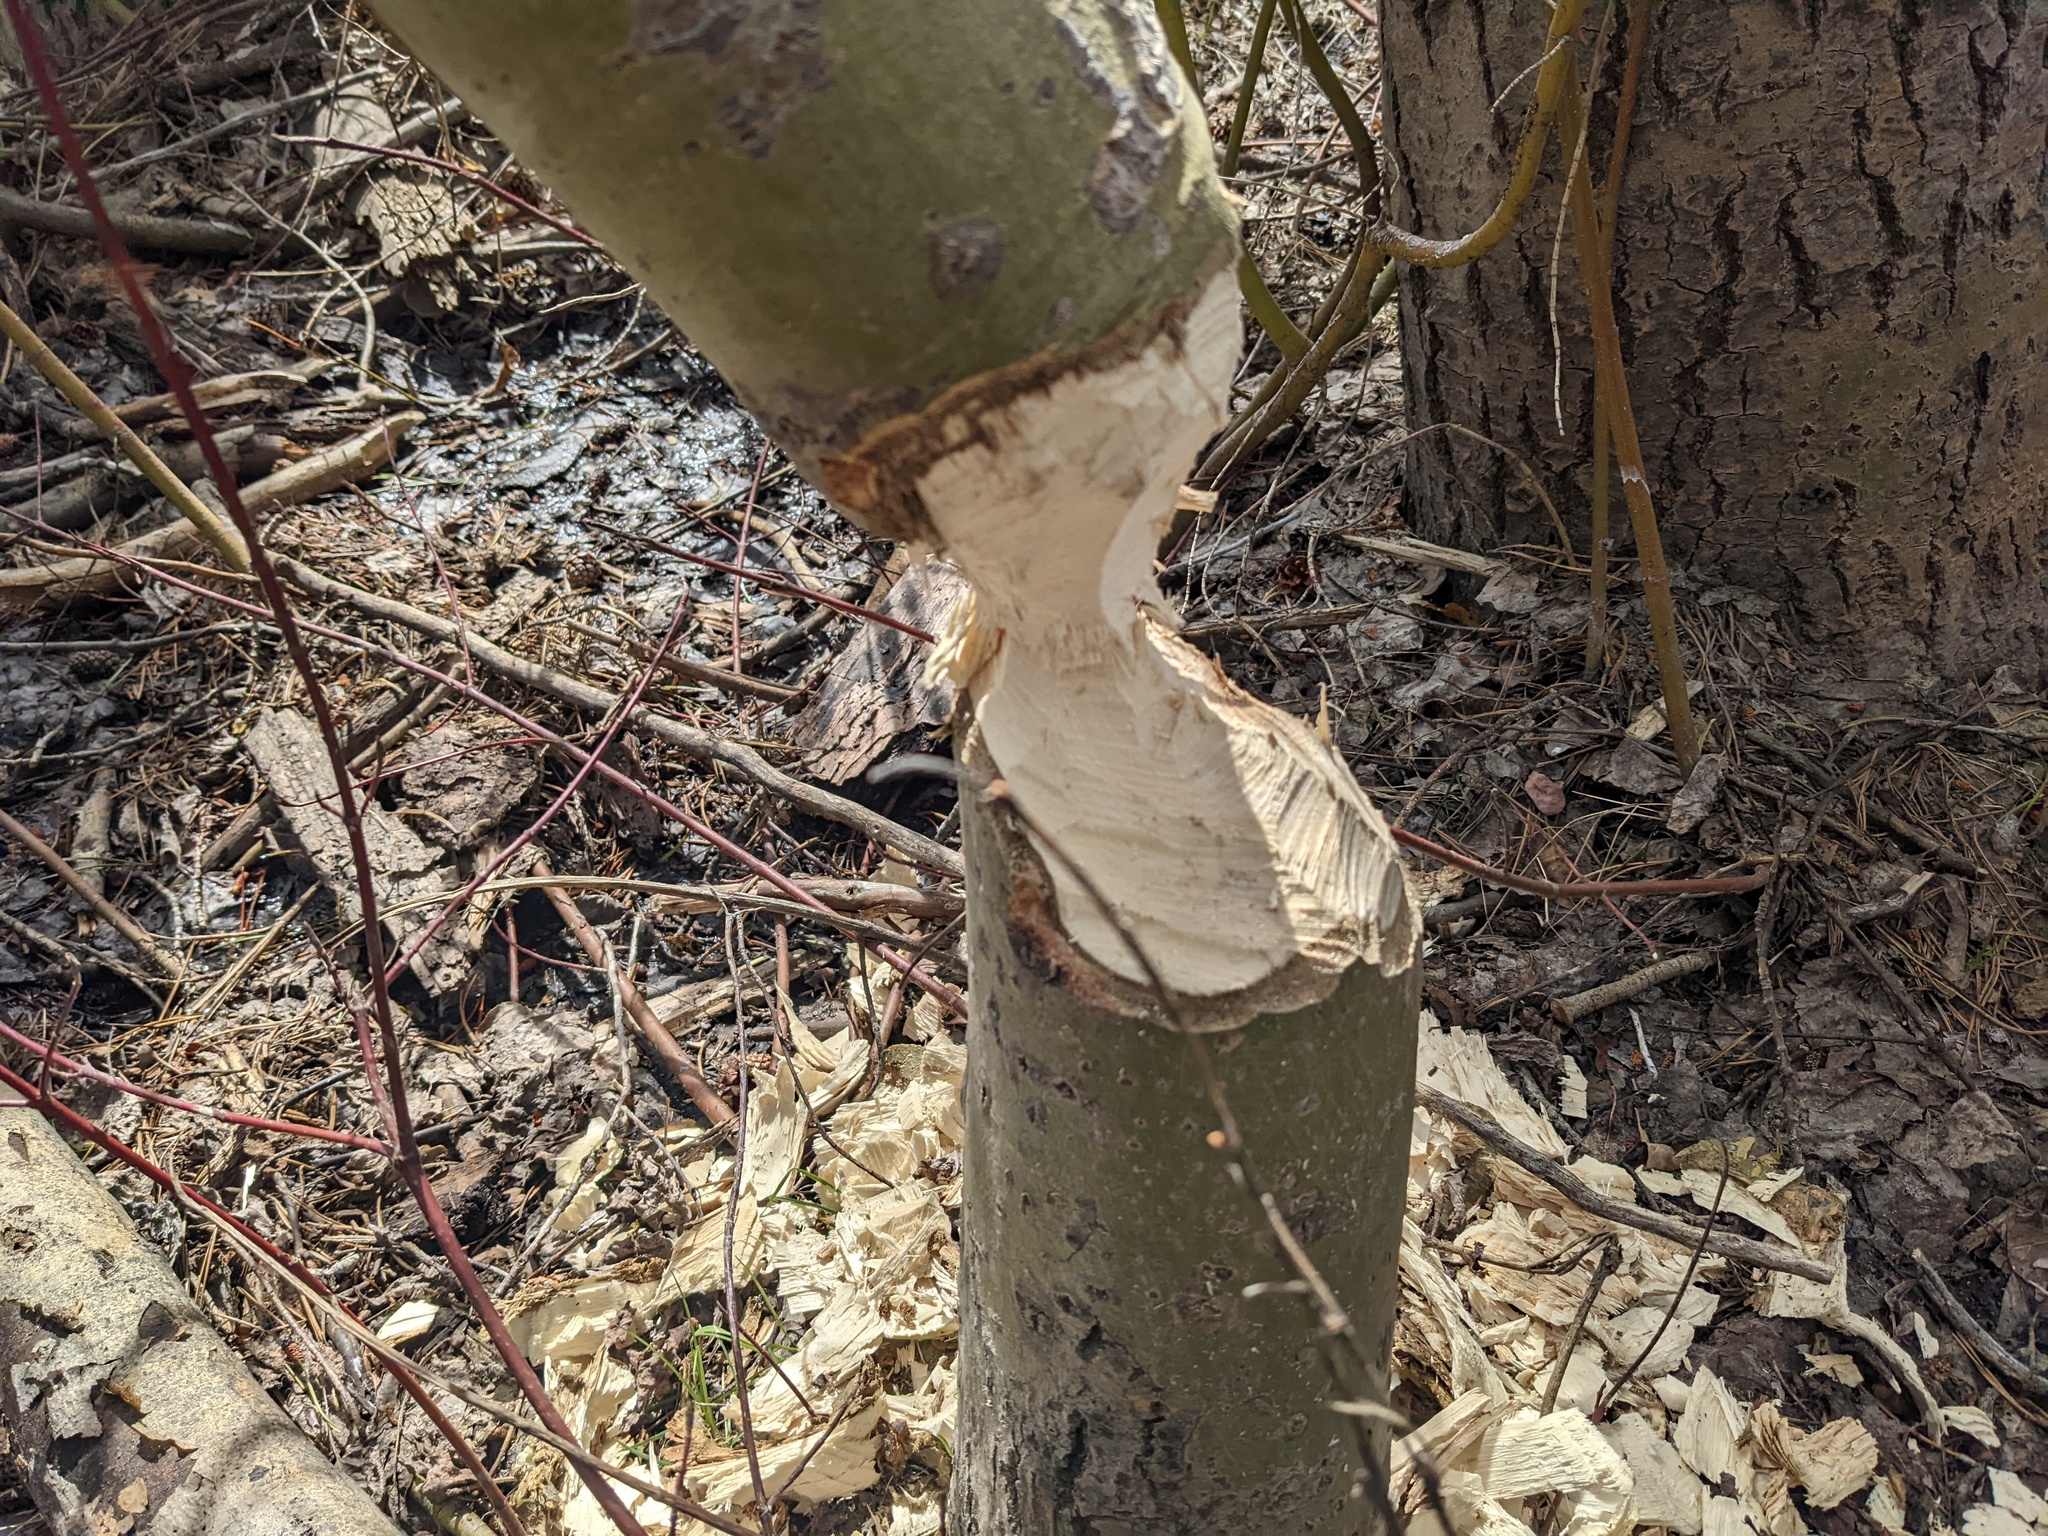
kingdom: Animalia
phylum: Chordata
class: Mammalia
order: Rodentia
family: Castoridae
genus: Castor
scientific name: Castor canadensis
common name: American beaver
